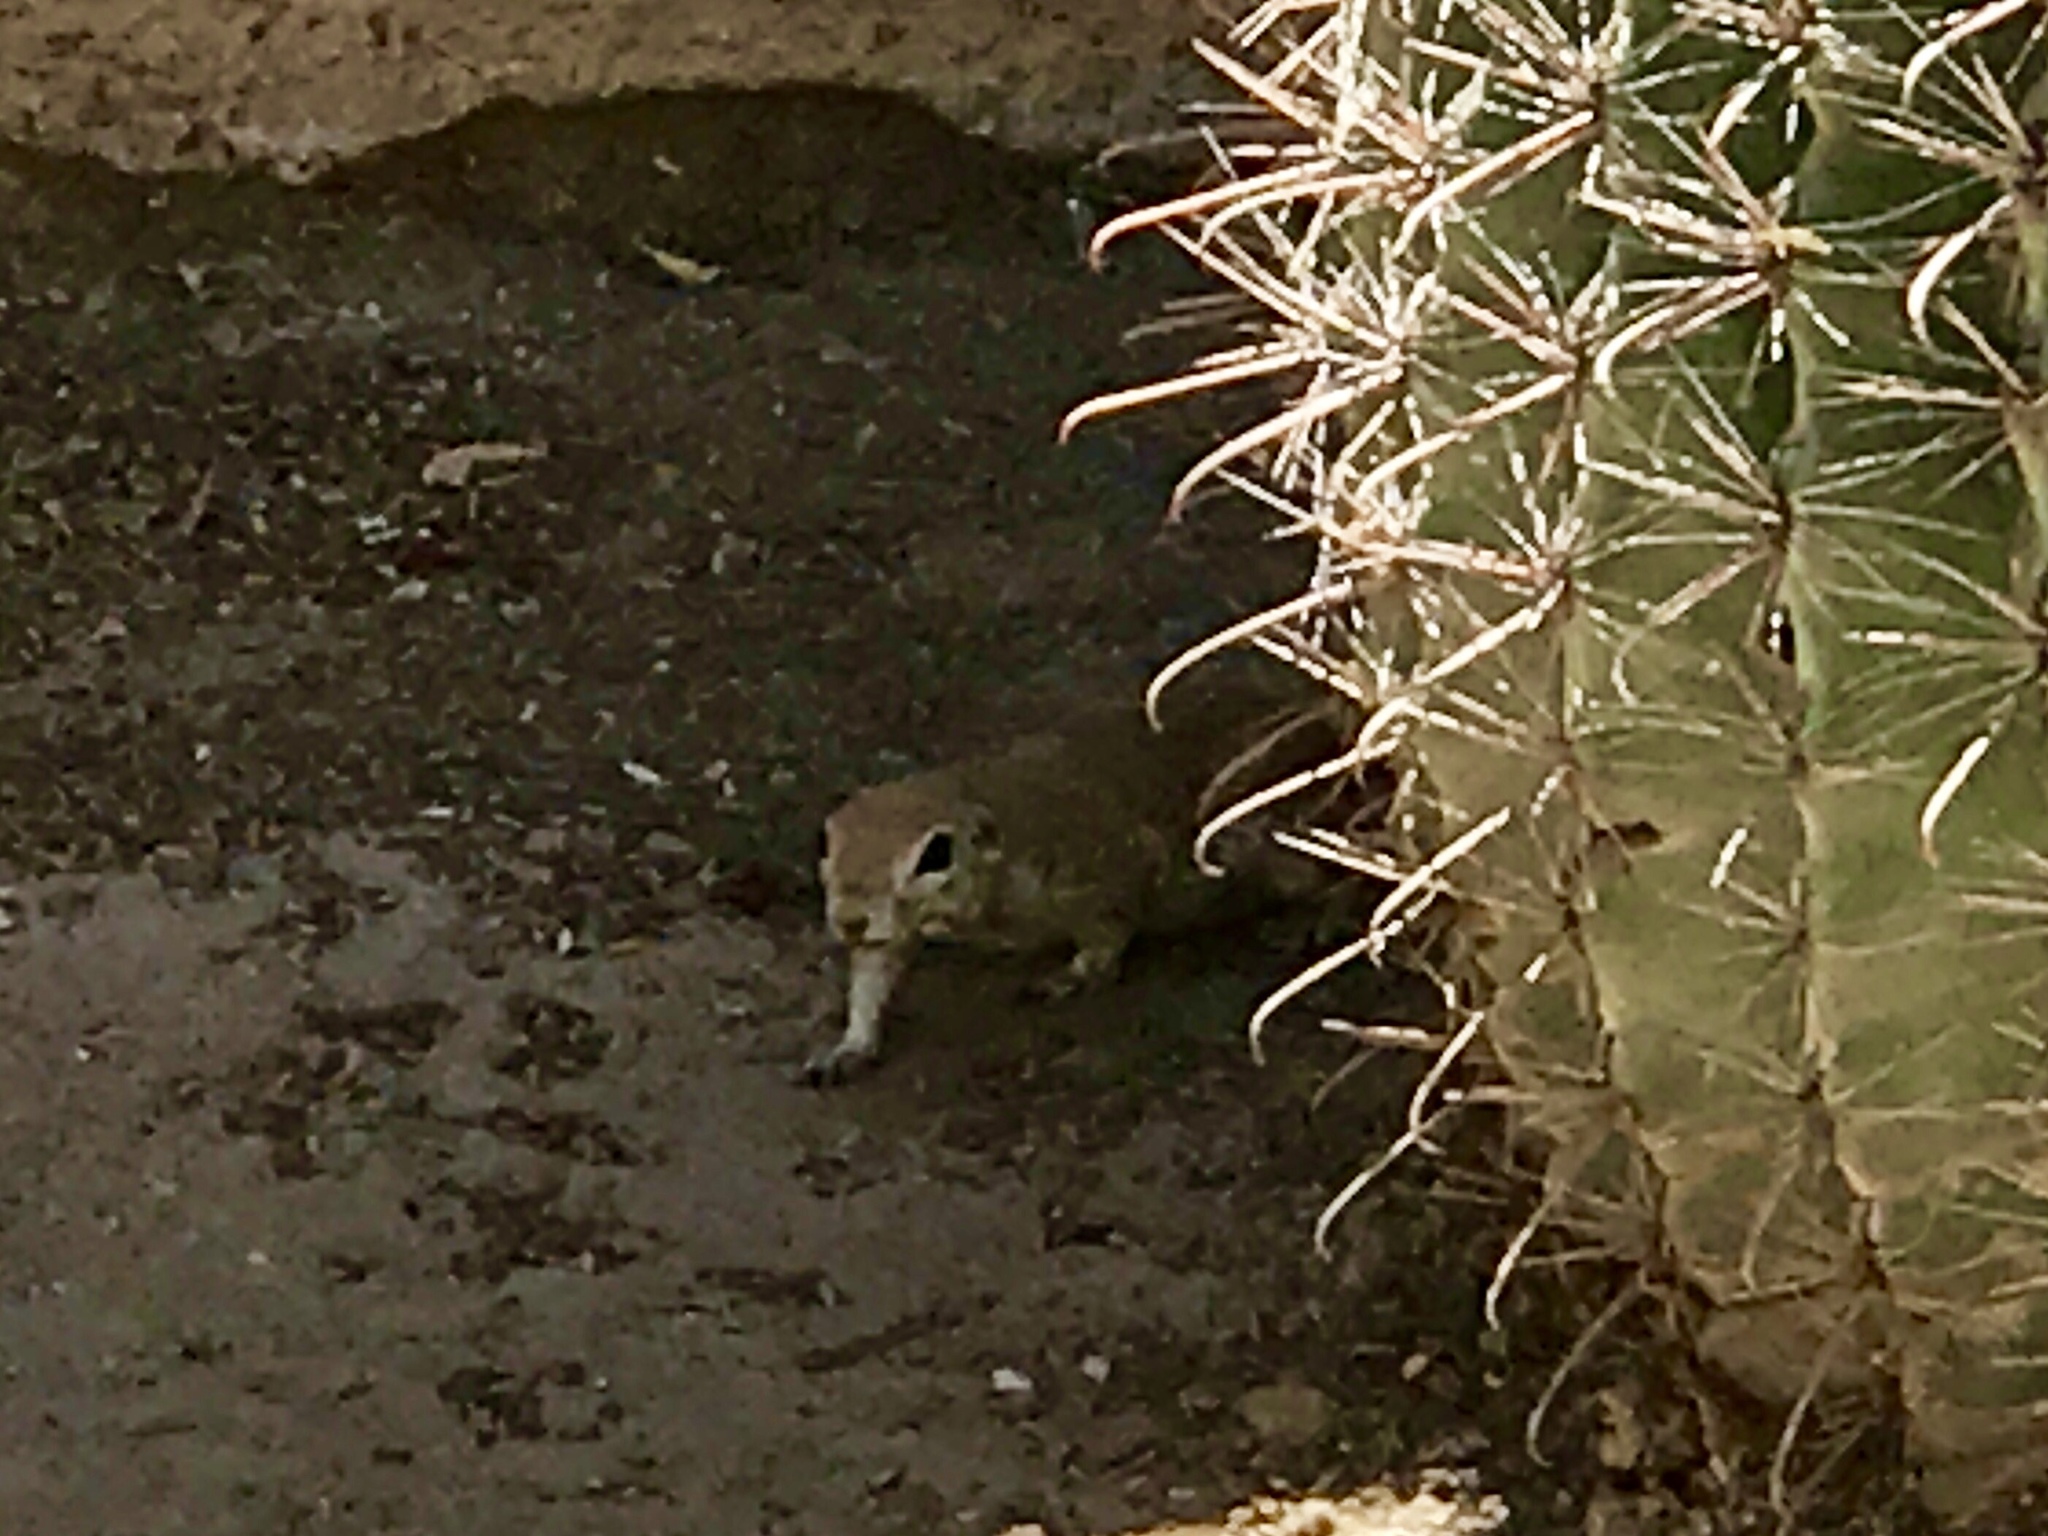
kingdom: Animalia
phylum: Chordata
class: Mammalia
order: Rodentia
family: Sciuridae
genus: Xerospermophilus
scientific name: Xerospermophilus tereticaudus
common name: Round-tailed ground squirrel
